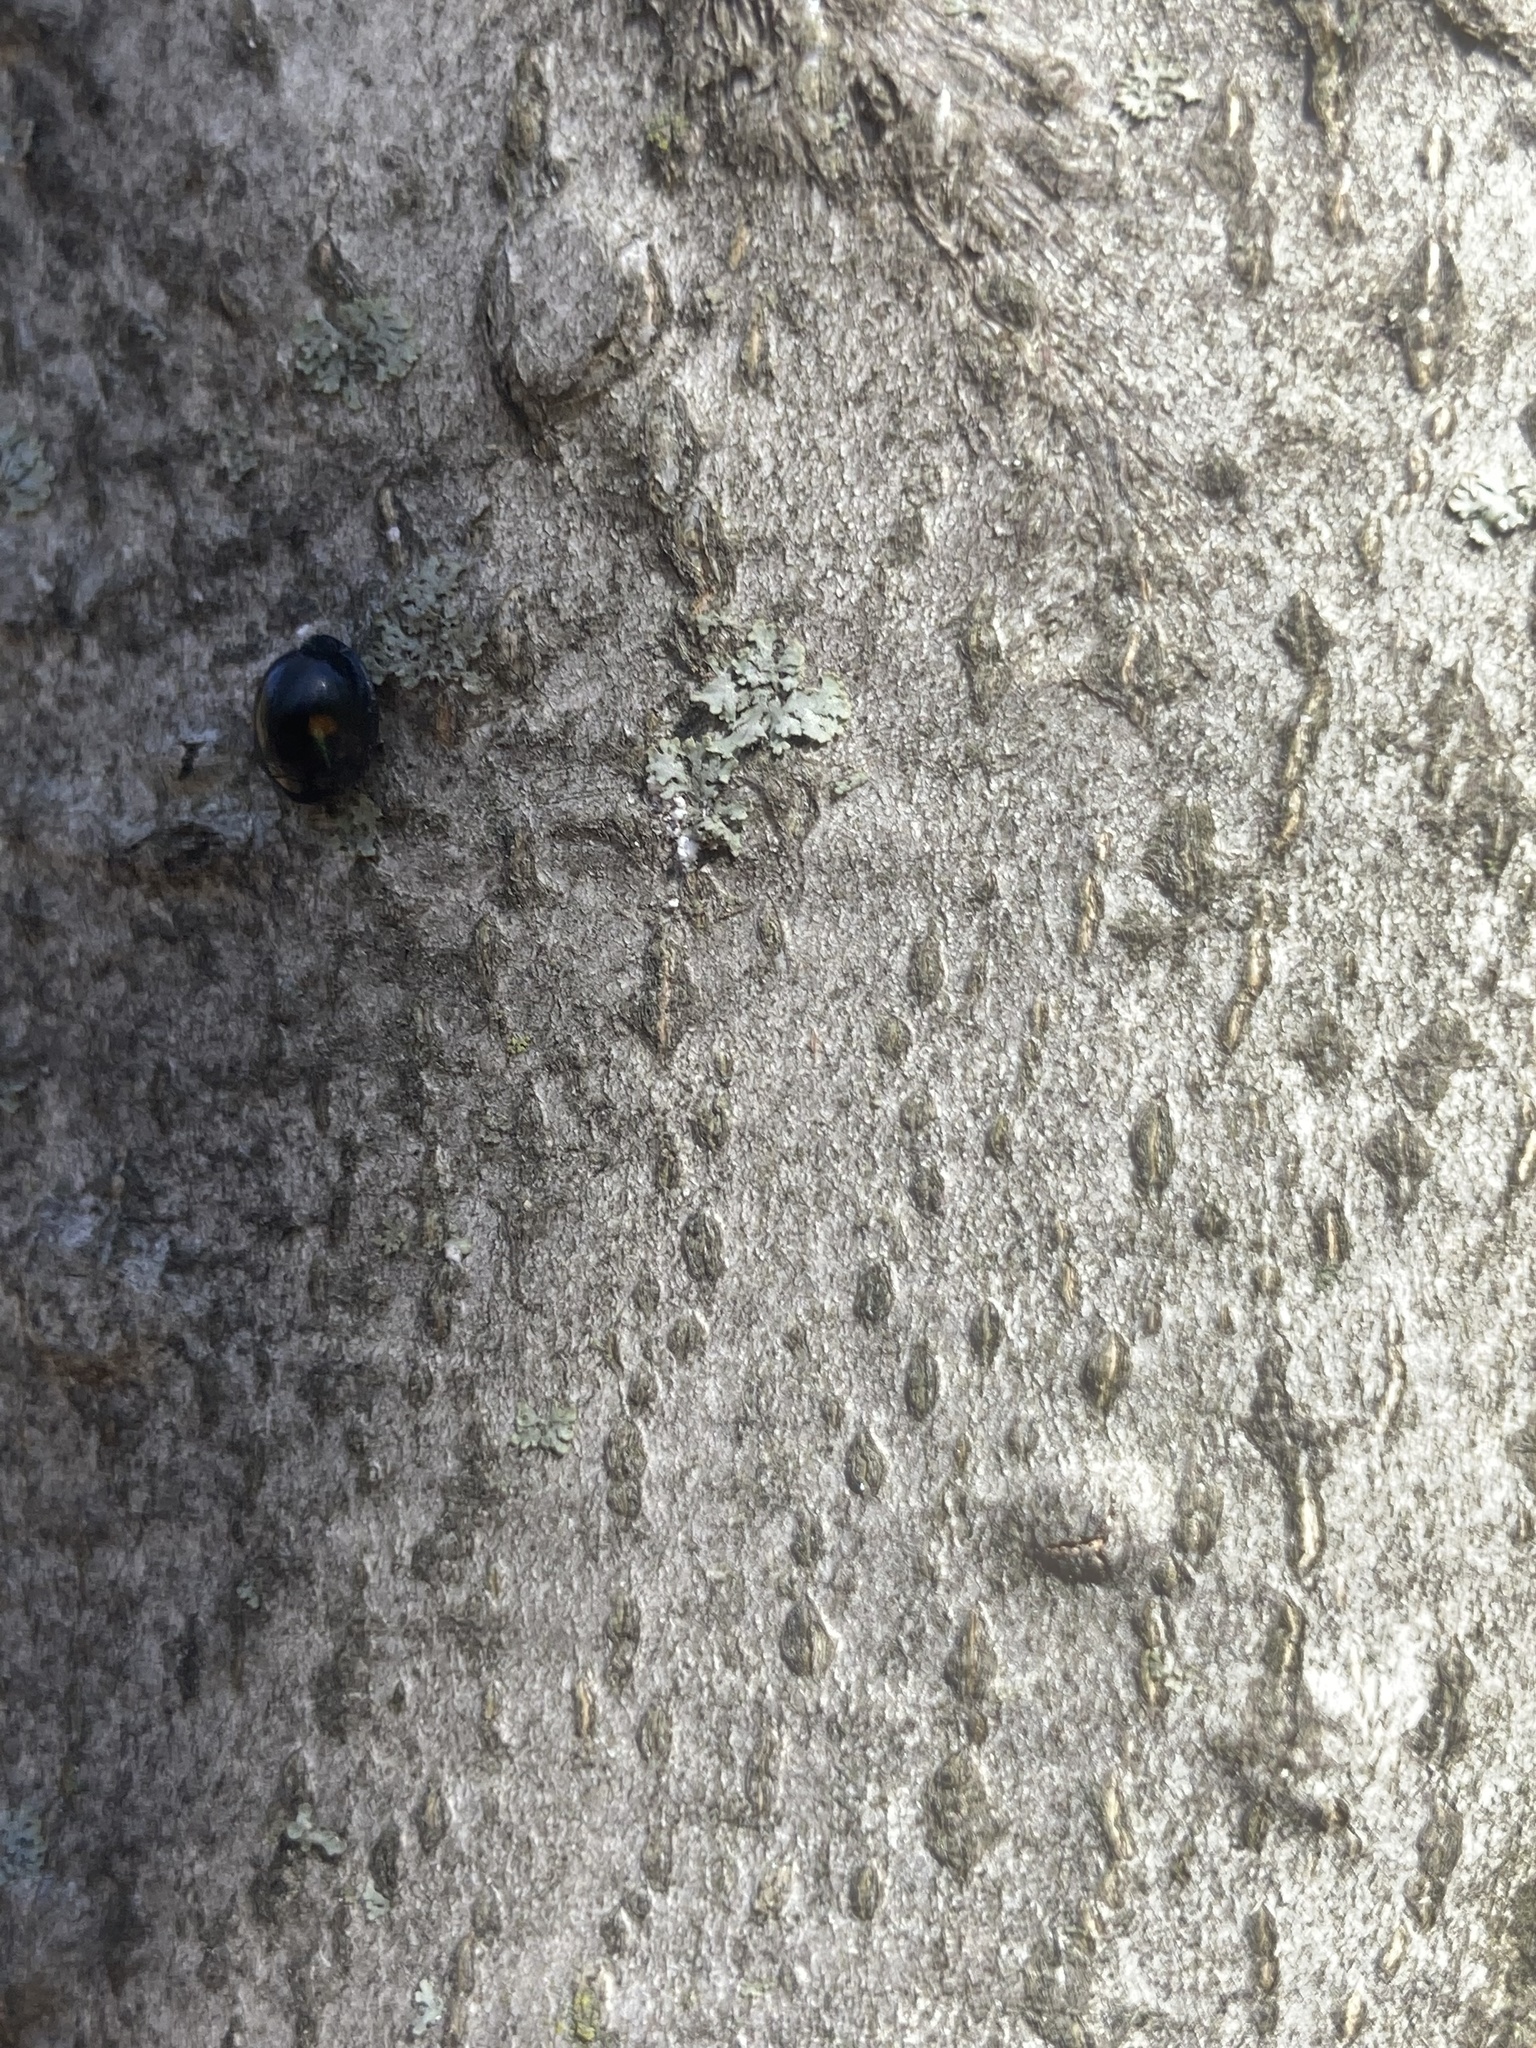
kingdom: Animalia
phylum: Arthropoda
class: Insecta
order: Coleoptera
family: Coccinellidae
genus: Chilocorus
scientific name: Chilocorus stigma
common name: Twicestabbed lady beetle
